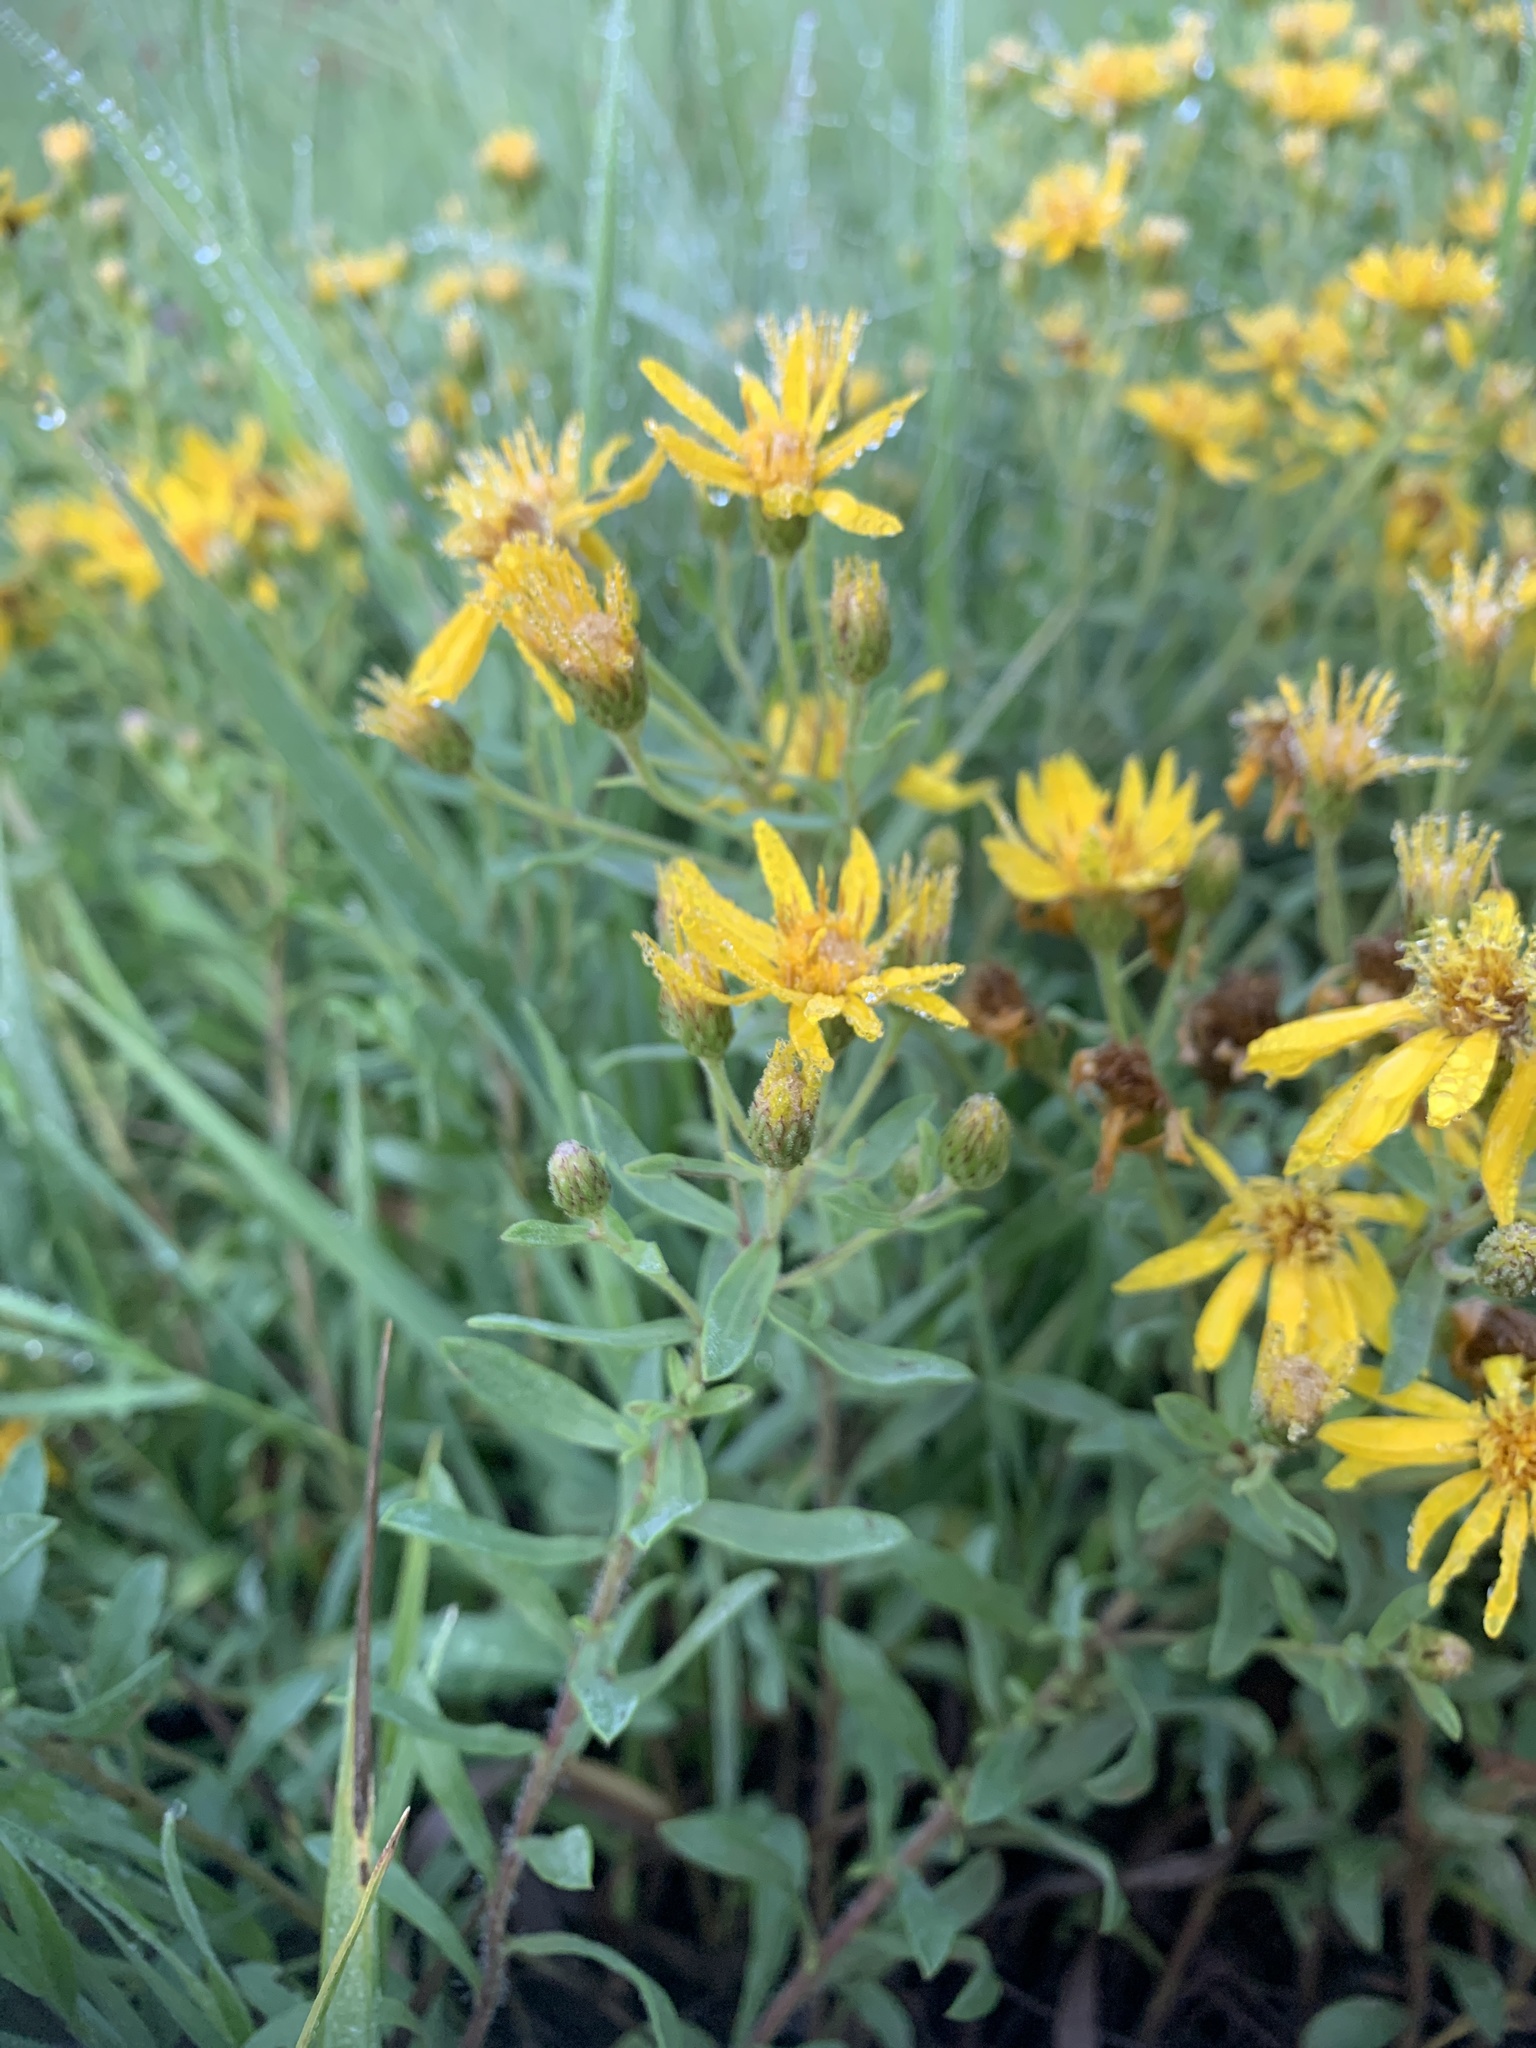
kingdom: Plantae
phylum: Tracheophyta
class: Magnoliopsida
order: Asterales
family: Asteraceae
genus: Heterotheca
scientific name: Heterotheca pedunculata
